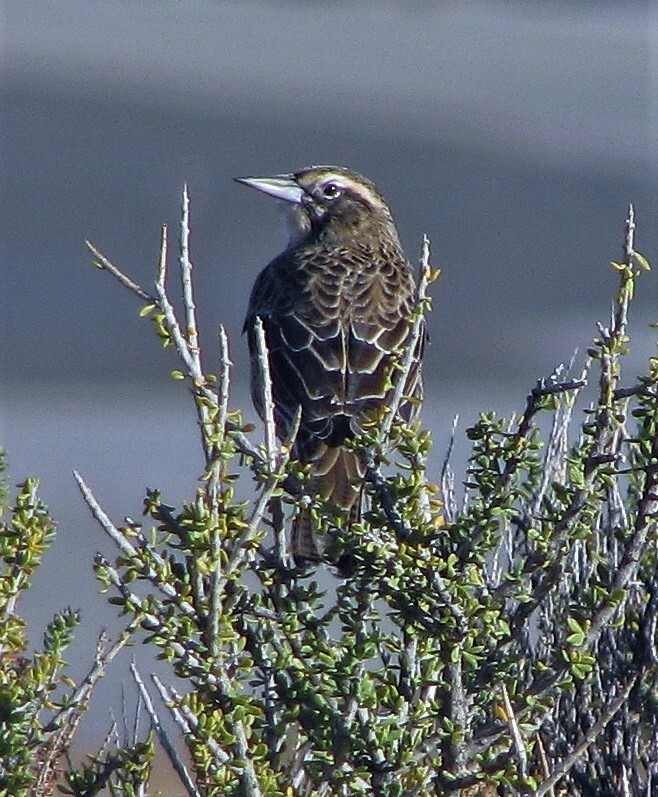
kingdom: Animalia
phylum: Chordata
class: Aves
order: Passeriformes
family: Icteridae
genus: Sturnella
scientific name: Sturnella loyca
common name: Long-tailed meadowlark
